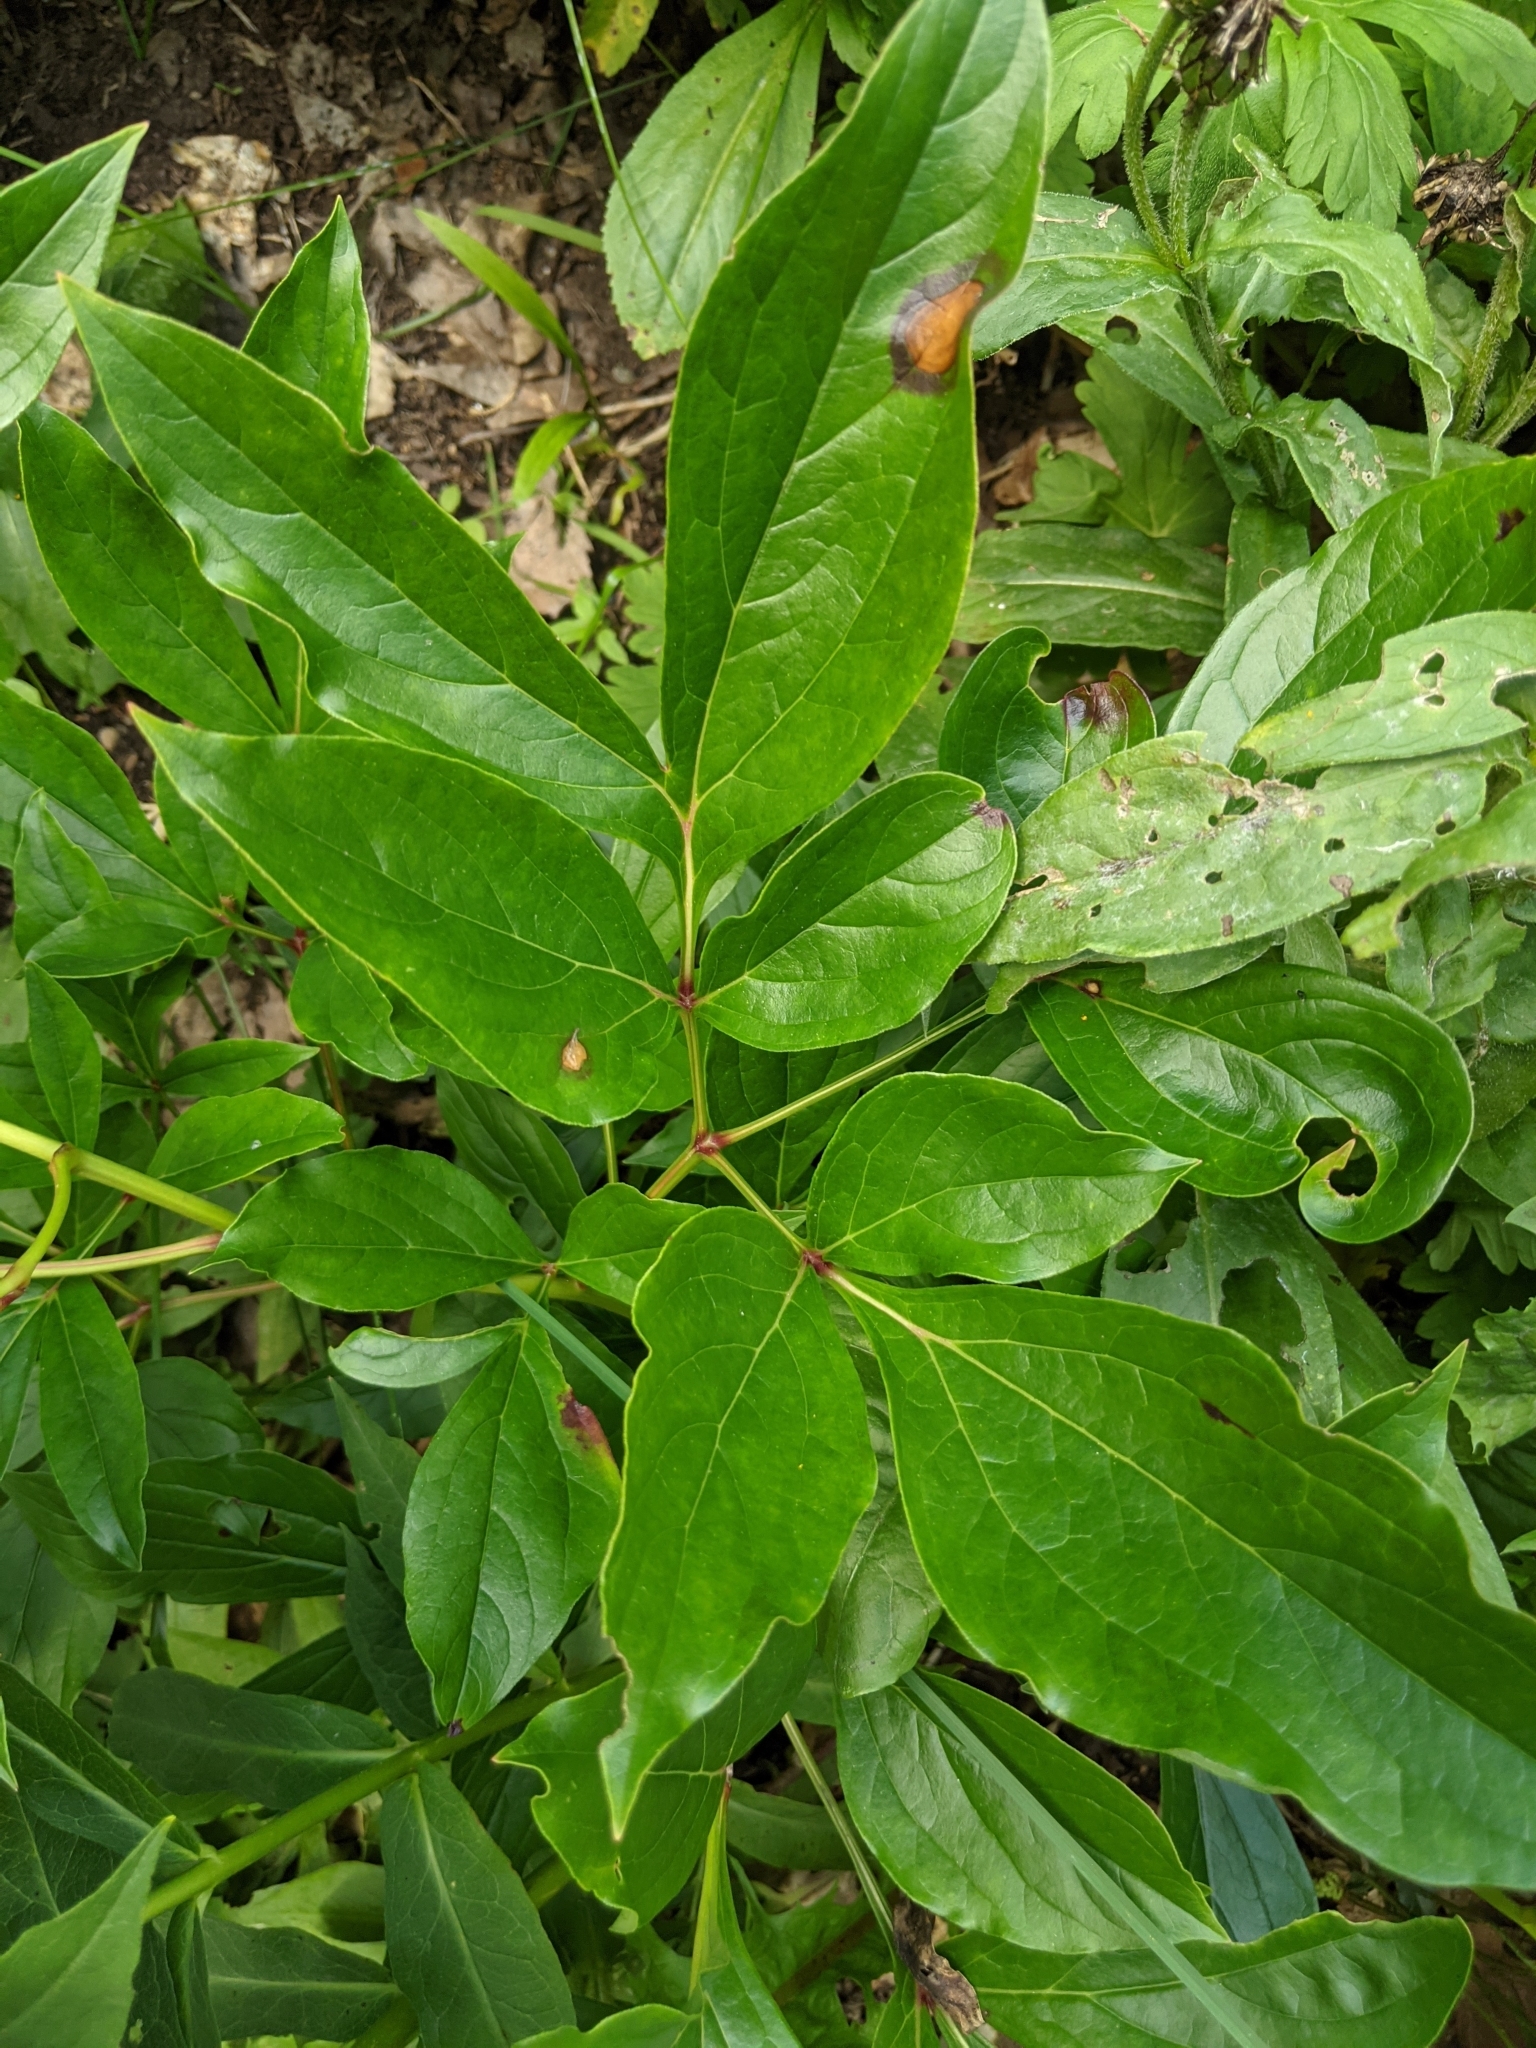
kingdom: Fungi
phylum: Ascomycota
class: Dothideomycetes
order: Capnodiales
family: Davidiellaceae
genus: Dichocladosporium
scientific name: Dichocladosporium chlorocephalum
